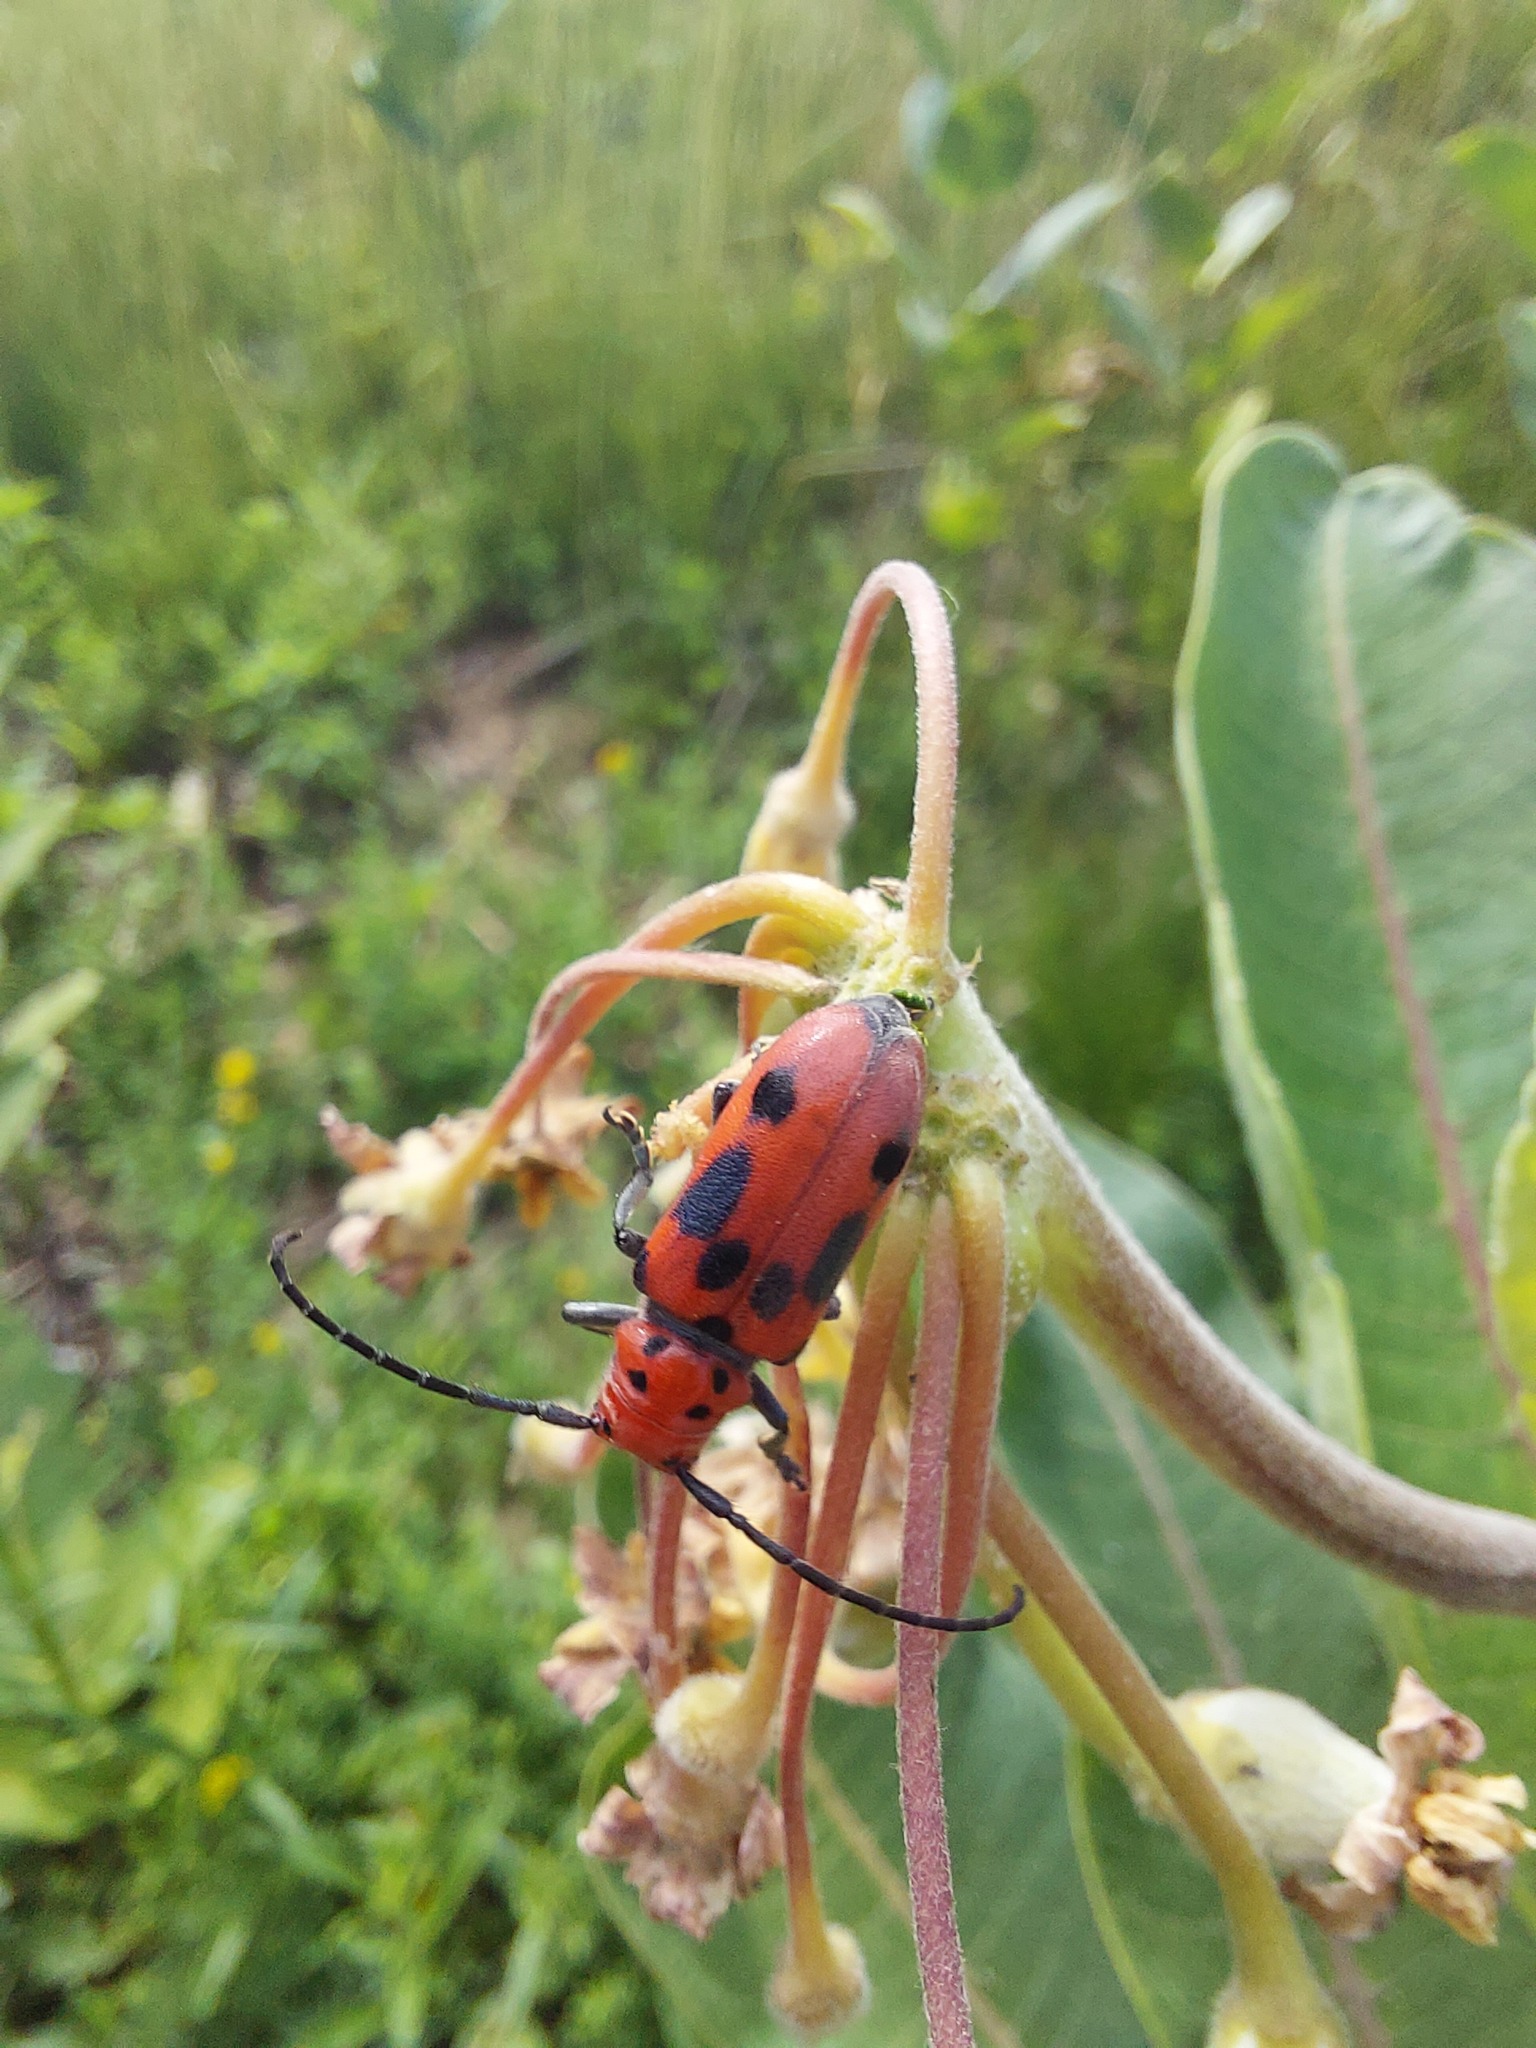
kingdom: Animalia
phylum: Arthropoda
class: Insecta
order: Coleoptera
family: Cerambycidae
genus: Tetraopes
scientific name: Tetraopes tetrophthalmus
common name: Red milkweed beetle
